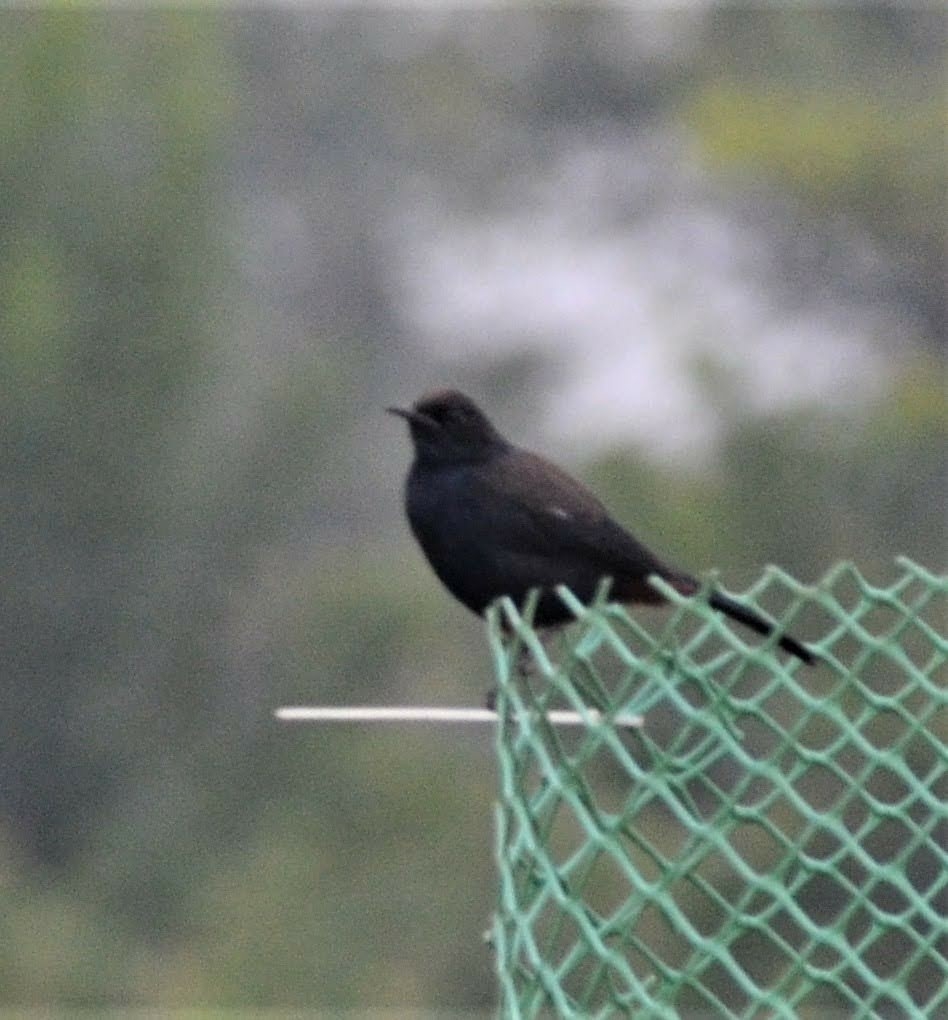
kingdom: Animalia
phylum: Chordata
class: Aves
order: Passeriformes
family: Muscicapidae
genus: Saxicoloides
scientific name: Saxicoloides fulicatus
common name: Indian robin
